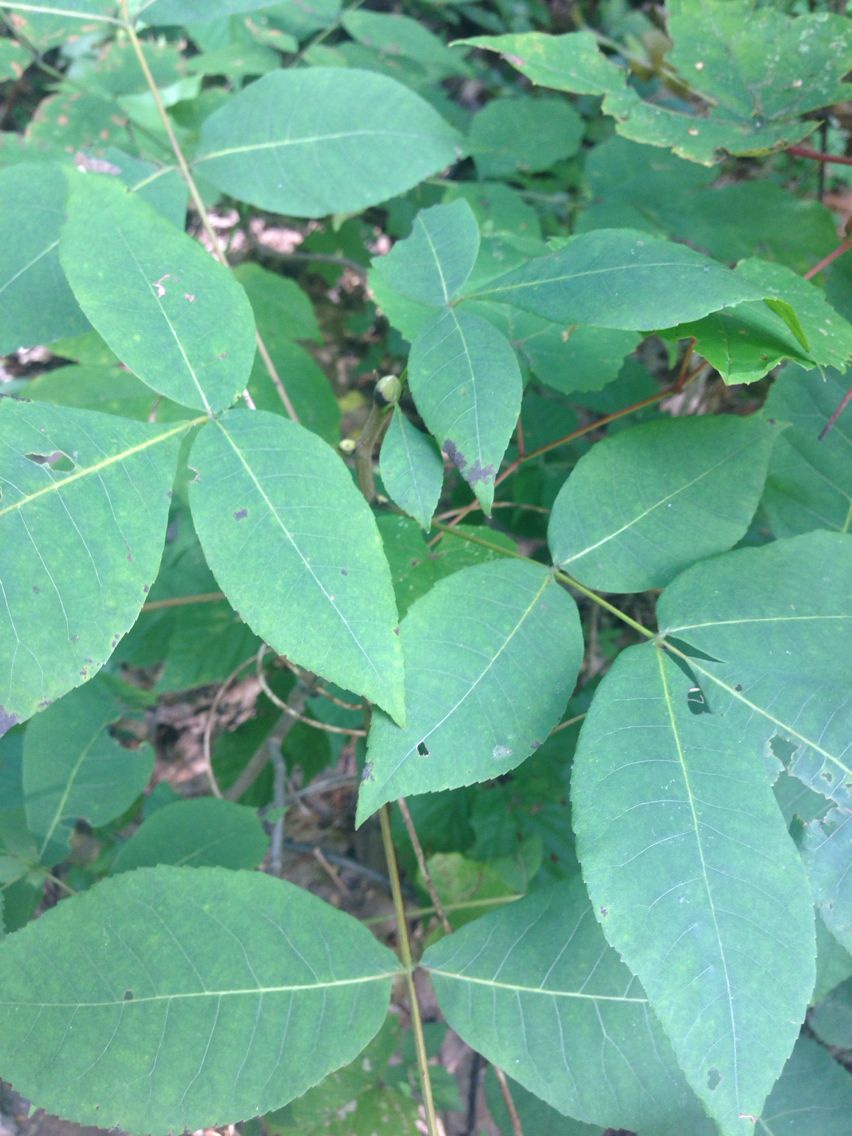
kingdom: Plantae
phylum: Tracheophyta
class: Magnoliopsida
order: Fagales
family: Juglandaceae
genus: Carya
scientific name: Carya ovata
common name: Shagbark hickory
